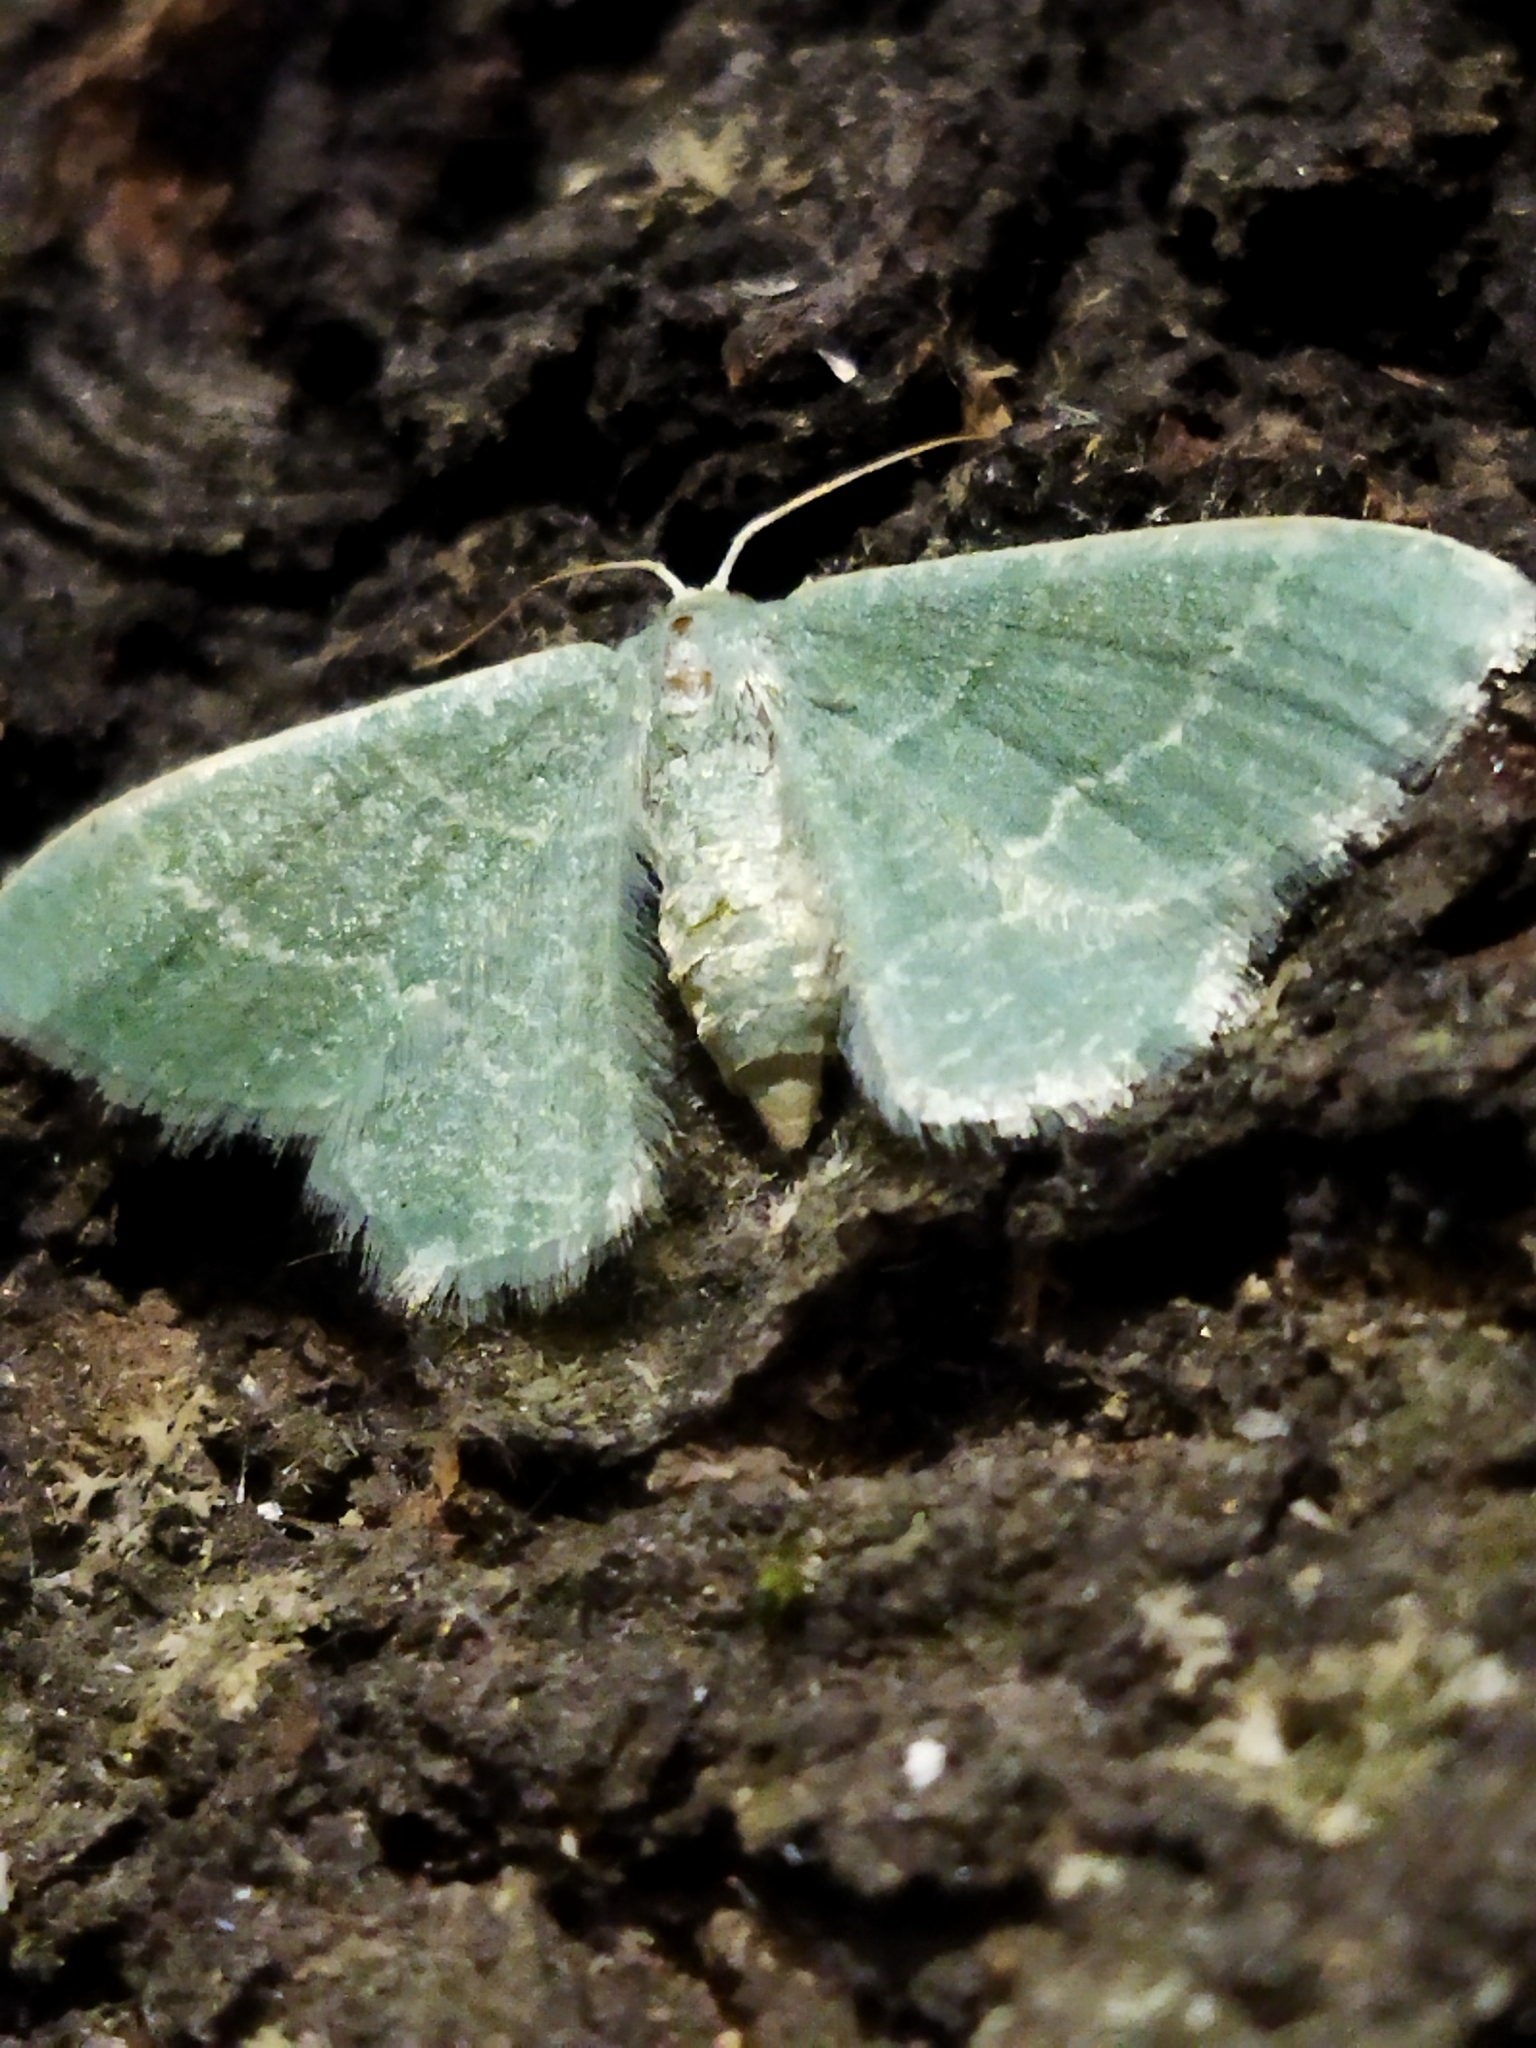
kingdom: Animalia
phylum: Arthropoda
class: Insecta
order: Lepidoptera
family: Geometridae
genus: Chlorissa
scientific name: Chlorissa etruscaria
